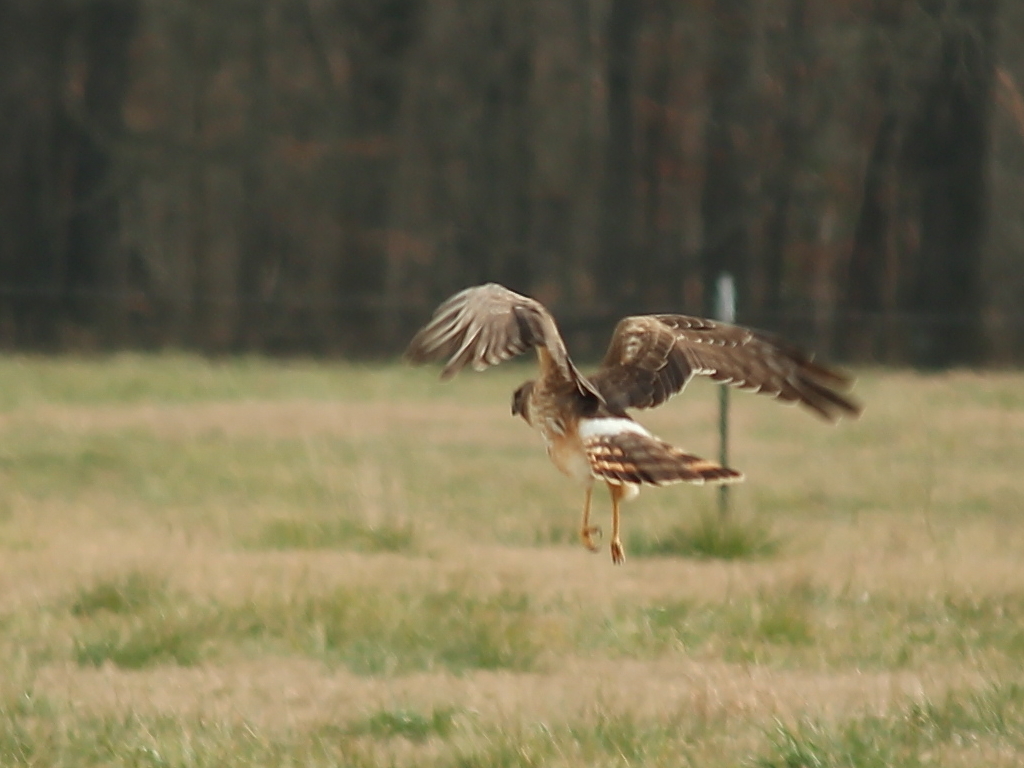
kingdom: Animalia
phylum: Chordata
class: Aves
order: Accipitriformes
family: Accipitridae
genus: Circus
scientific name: Circus cyaneus
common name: Hen harrier
